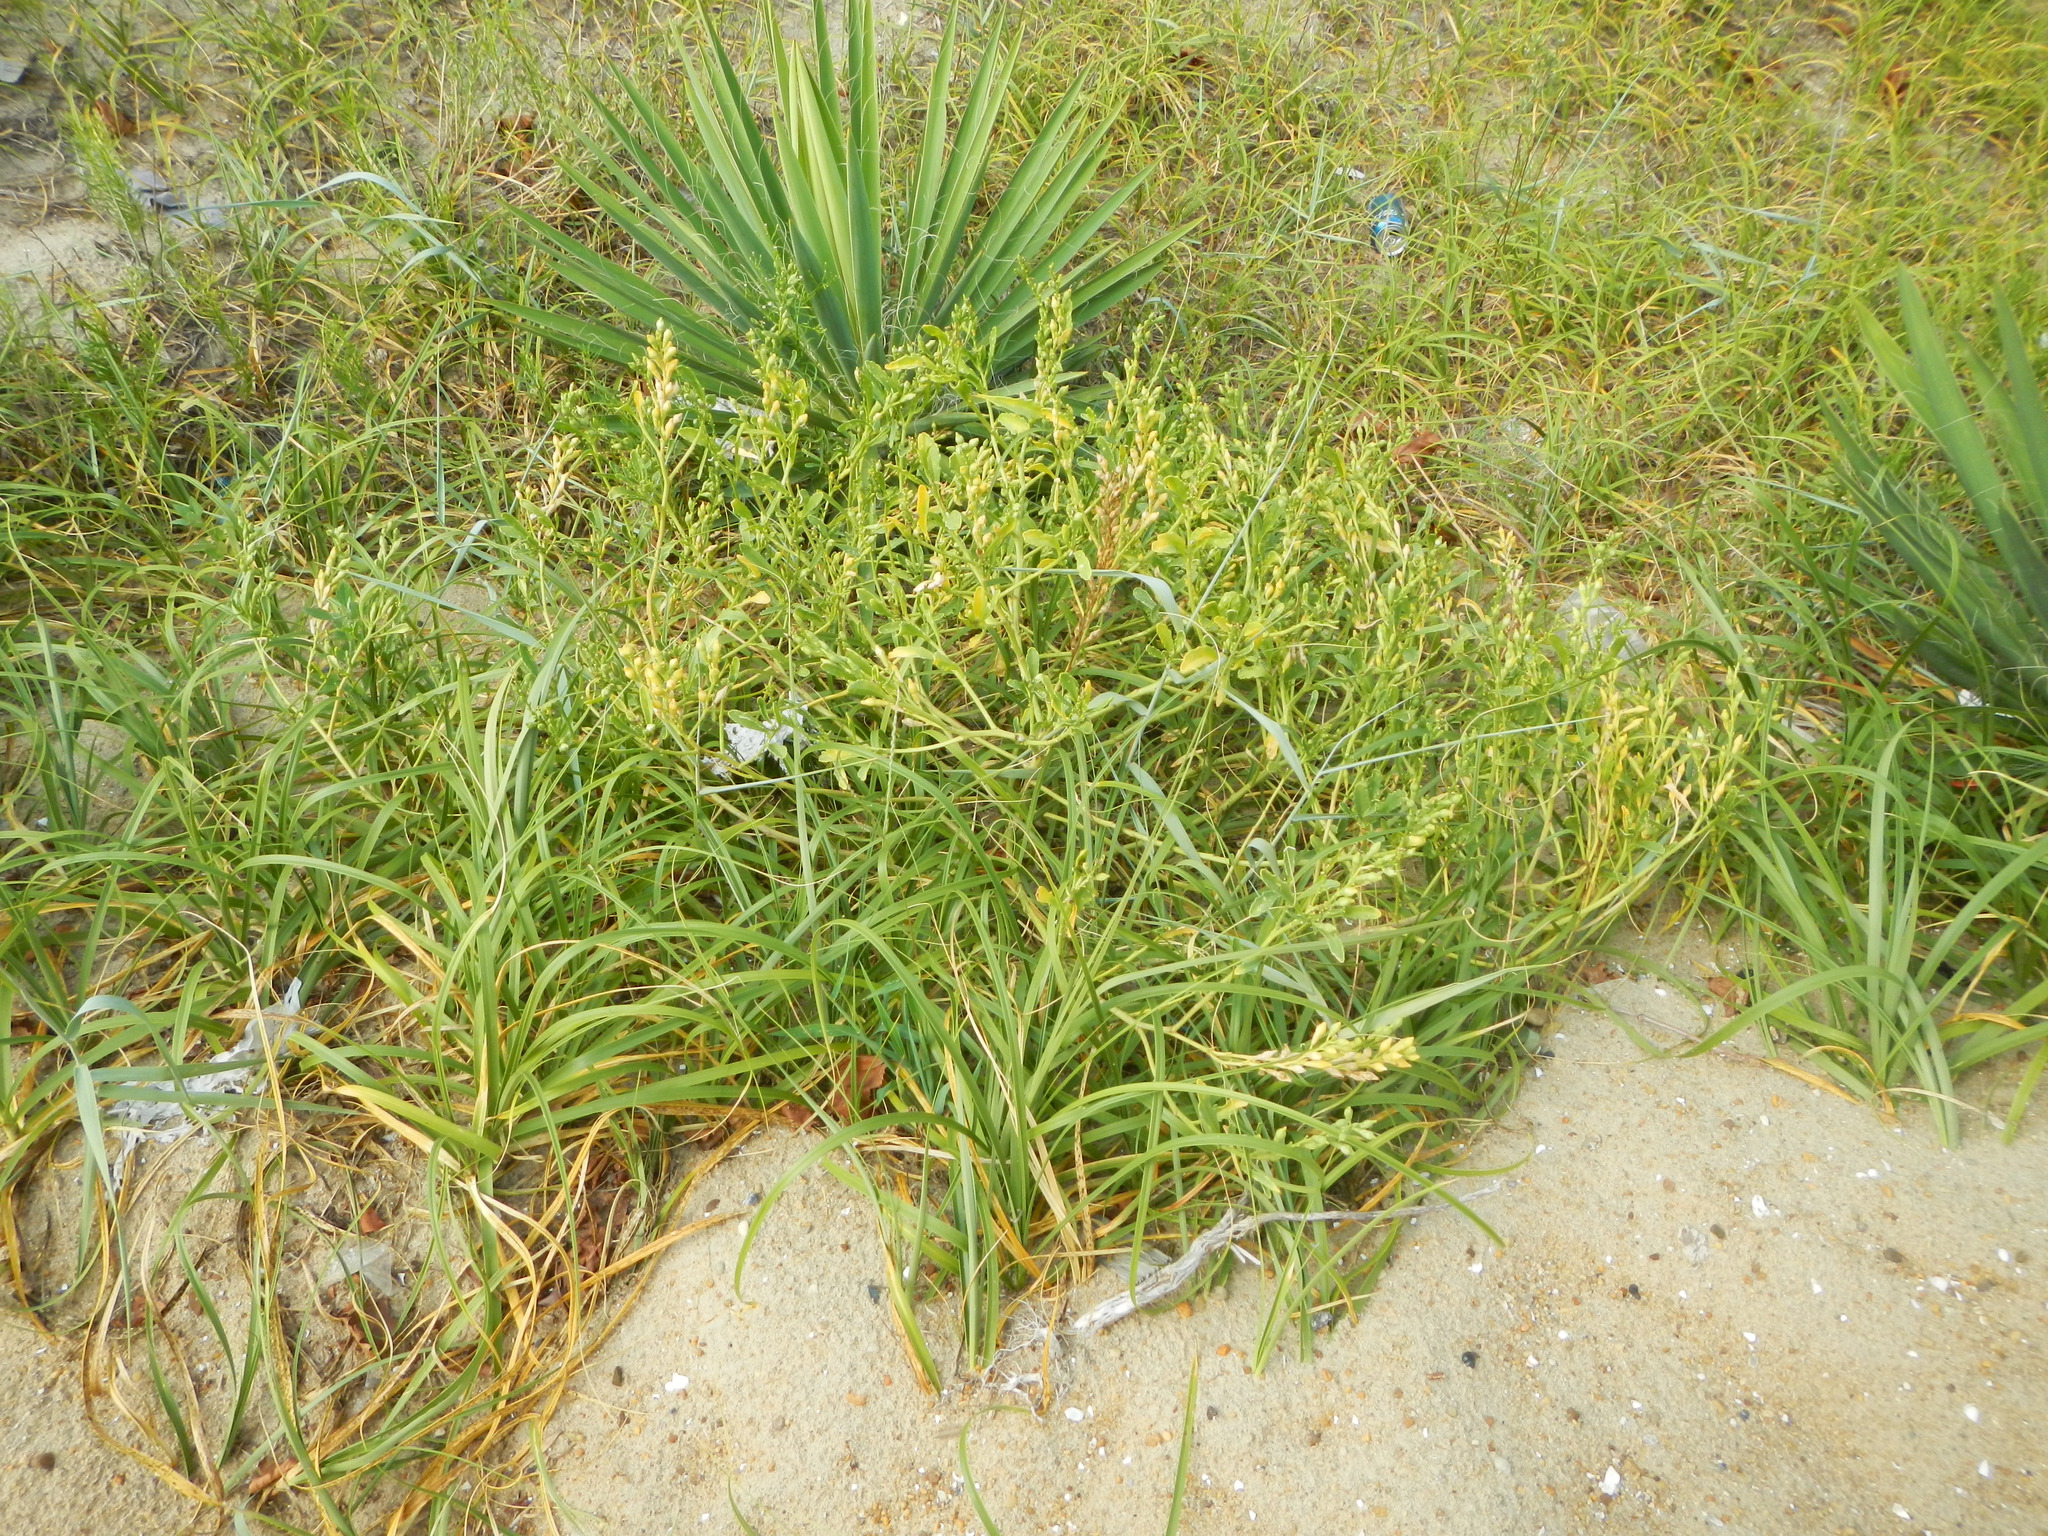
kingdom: Plantae
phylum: Tracheophyta
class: Magnoliopsida
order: Brassicales
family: Brassicaceae
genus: Cakile
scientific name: Cakile edentula
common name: American sea rocket
